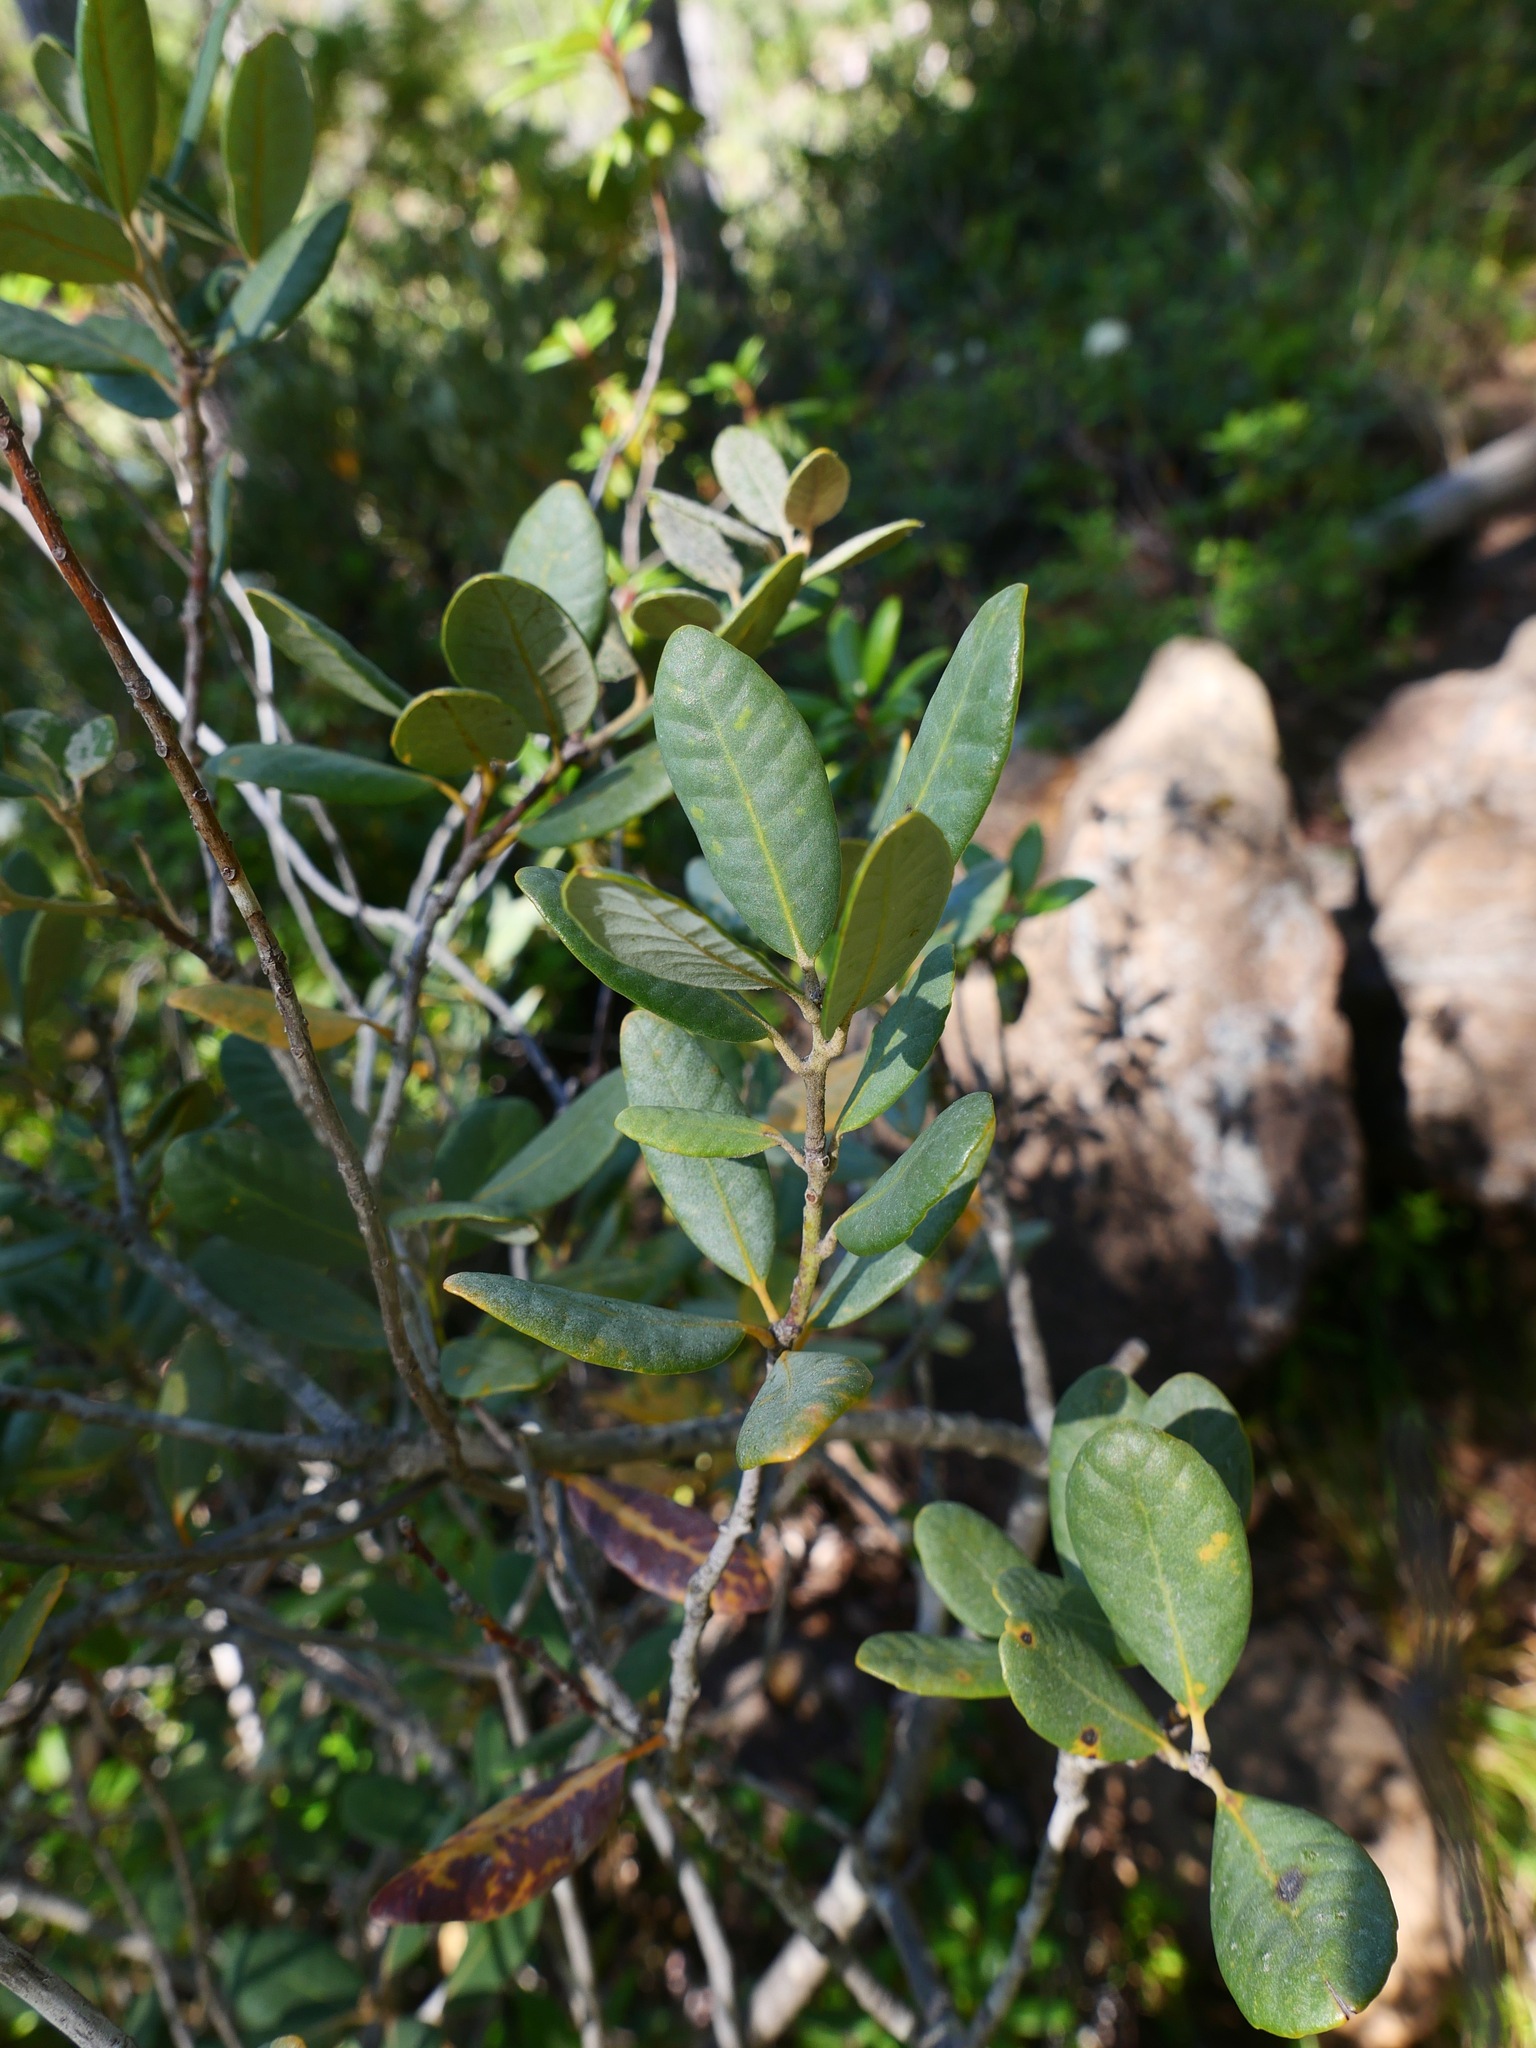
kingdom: Plantae
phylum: Tracheophyta
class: Magnoliopsida
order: Fagales
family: Fagaceae
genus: Notholithocarpus
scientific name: Notholithocarpus densiflorus
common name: Tan bark oak
